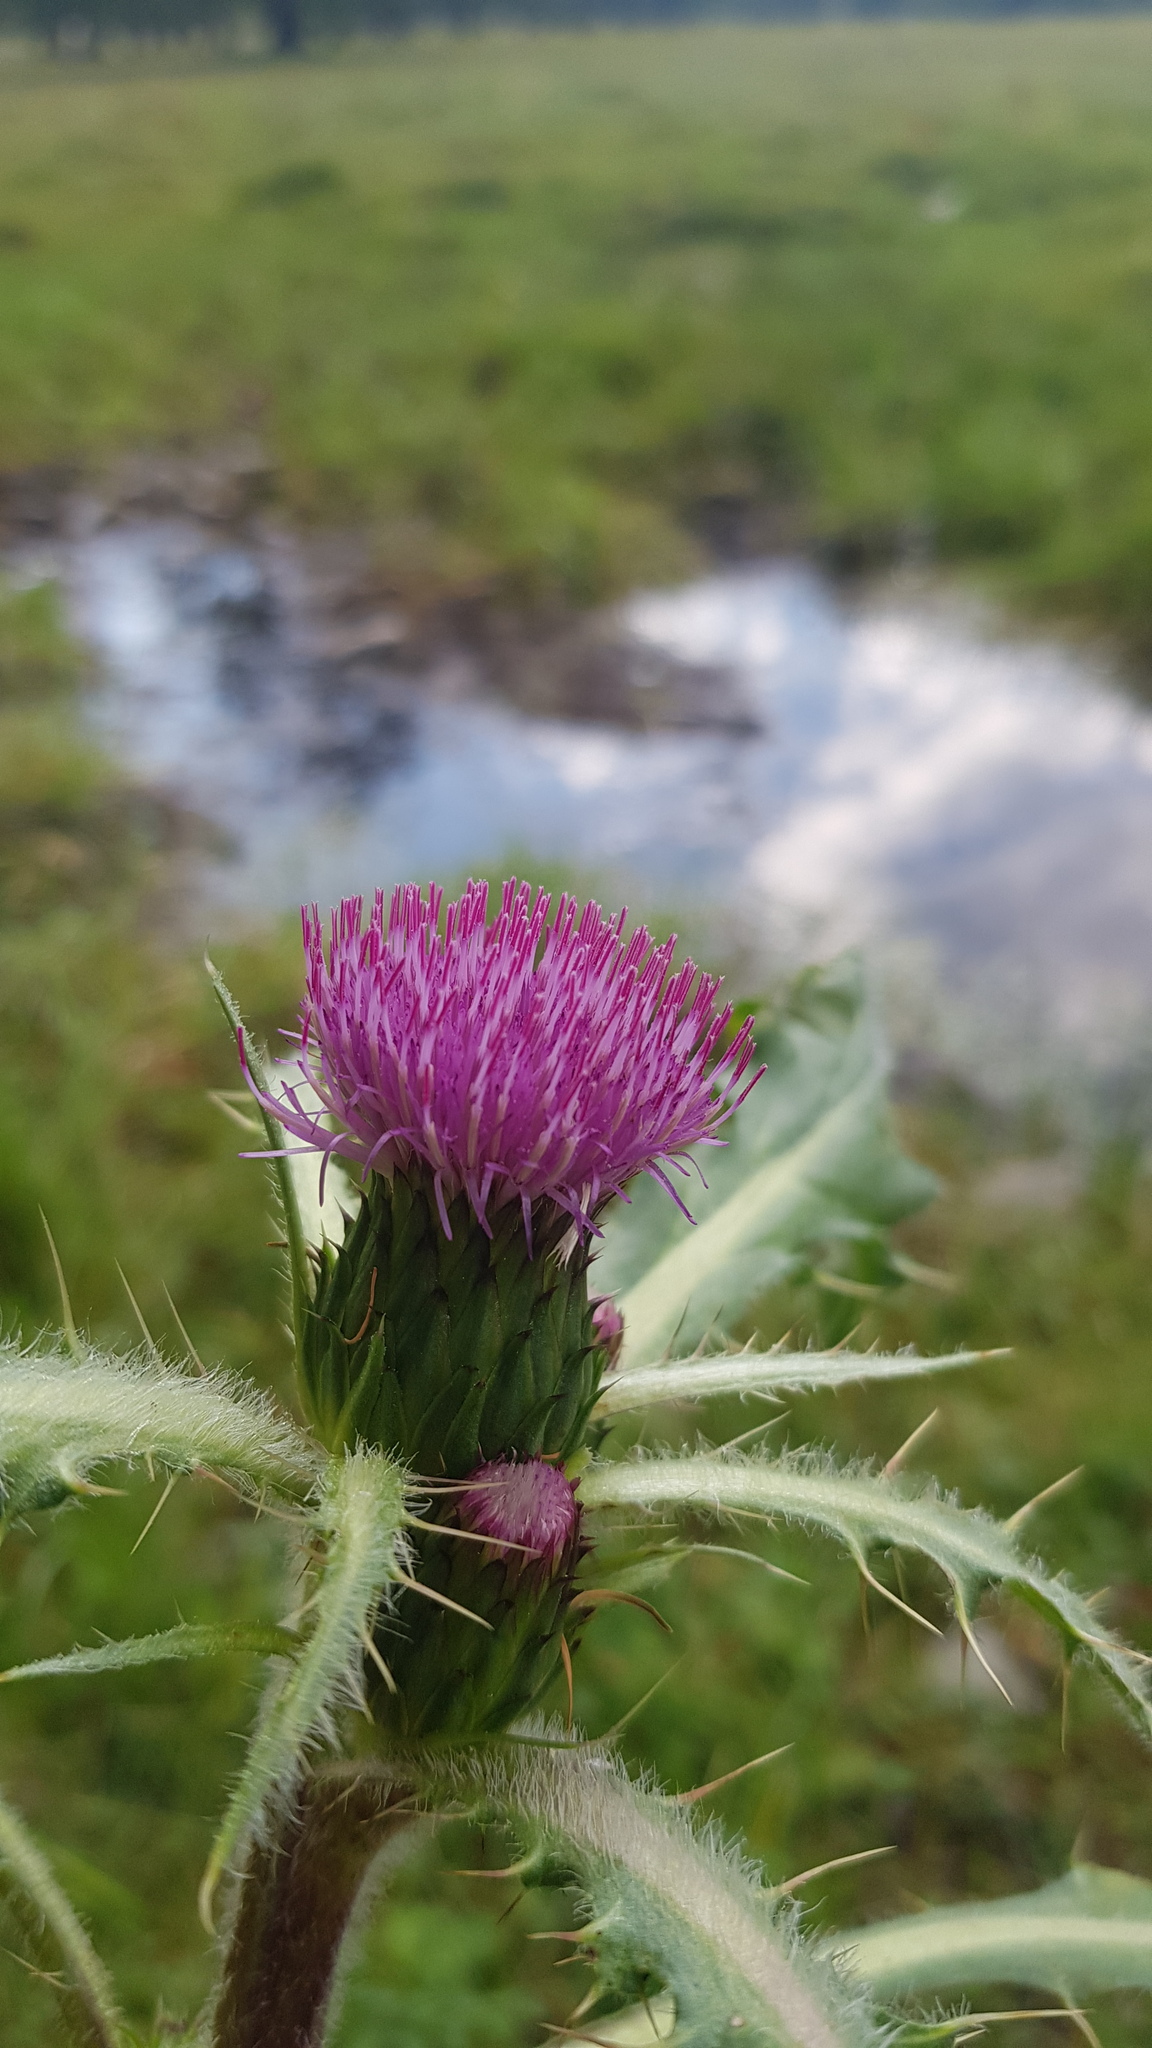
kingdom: Plantae
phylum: Tracheophyta
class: Magnoliopsida
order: Asterales
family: Asteraceae
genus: Cirsium
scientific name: Cirsium esculentum
